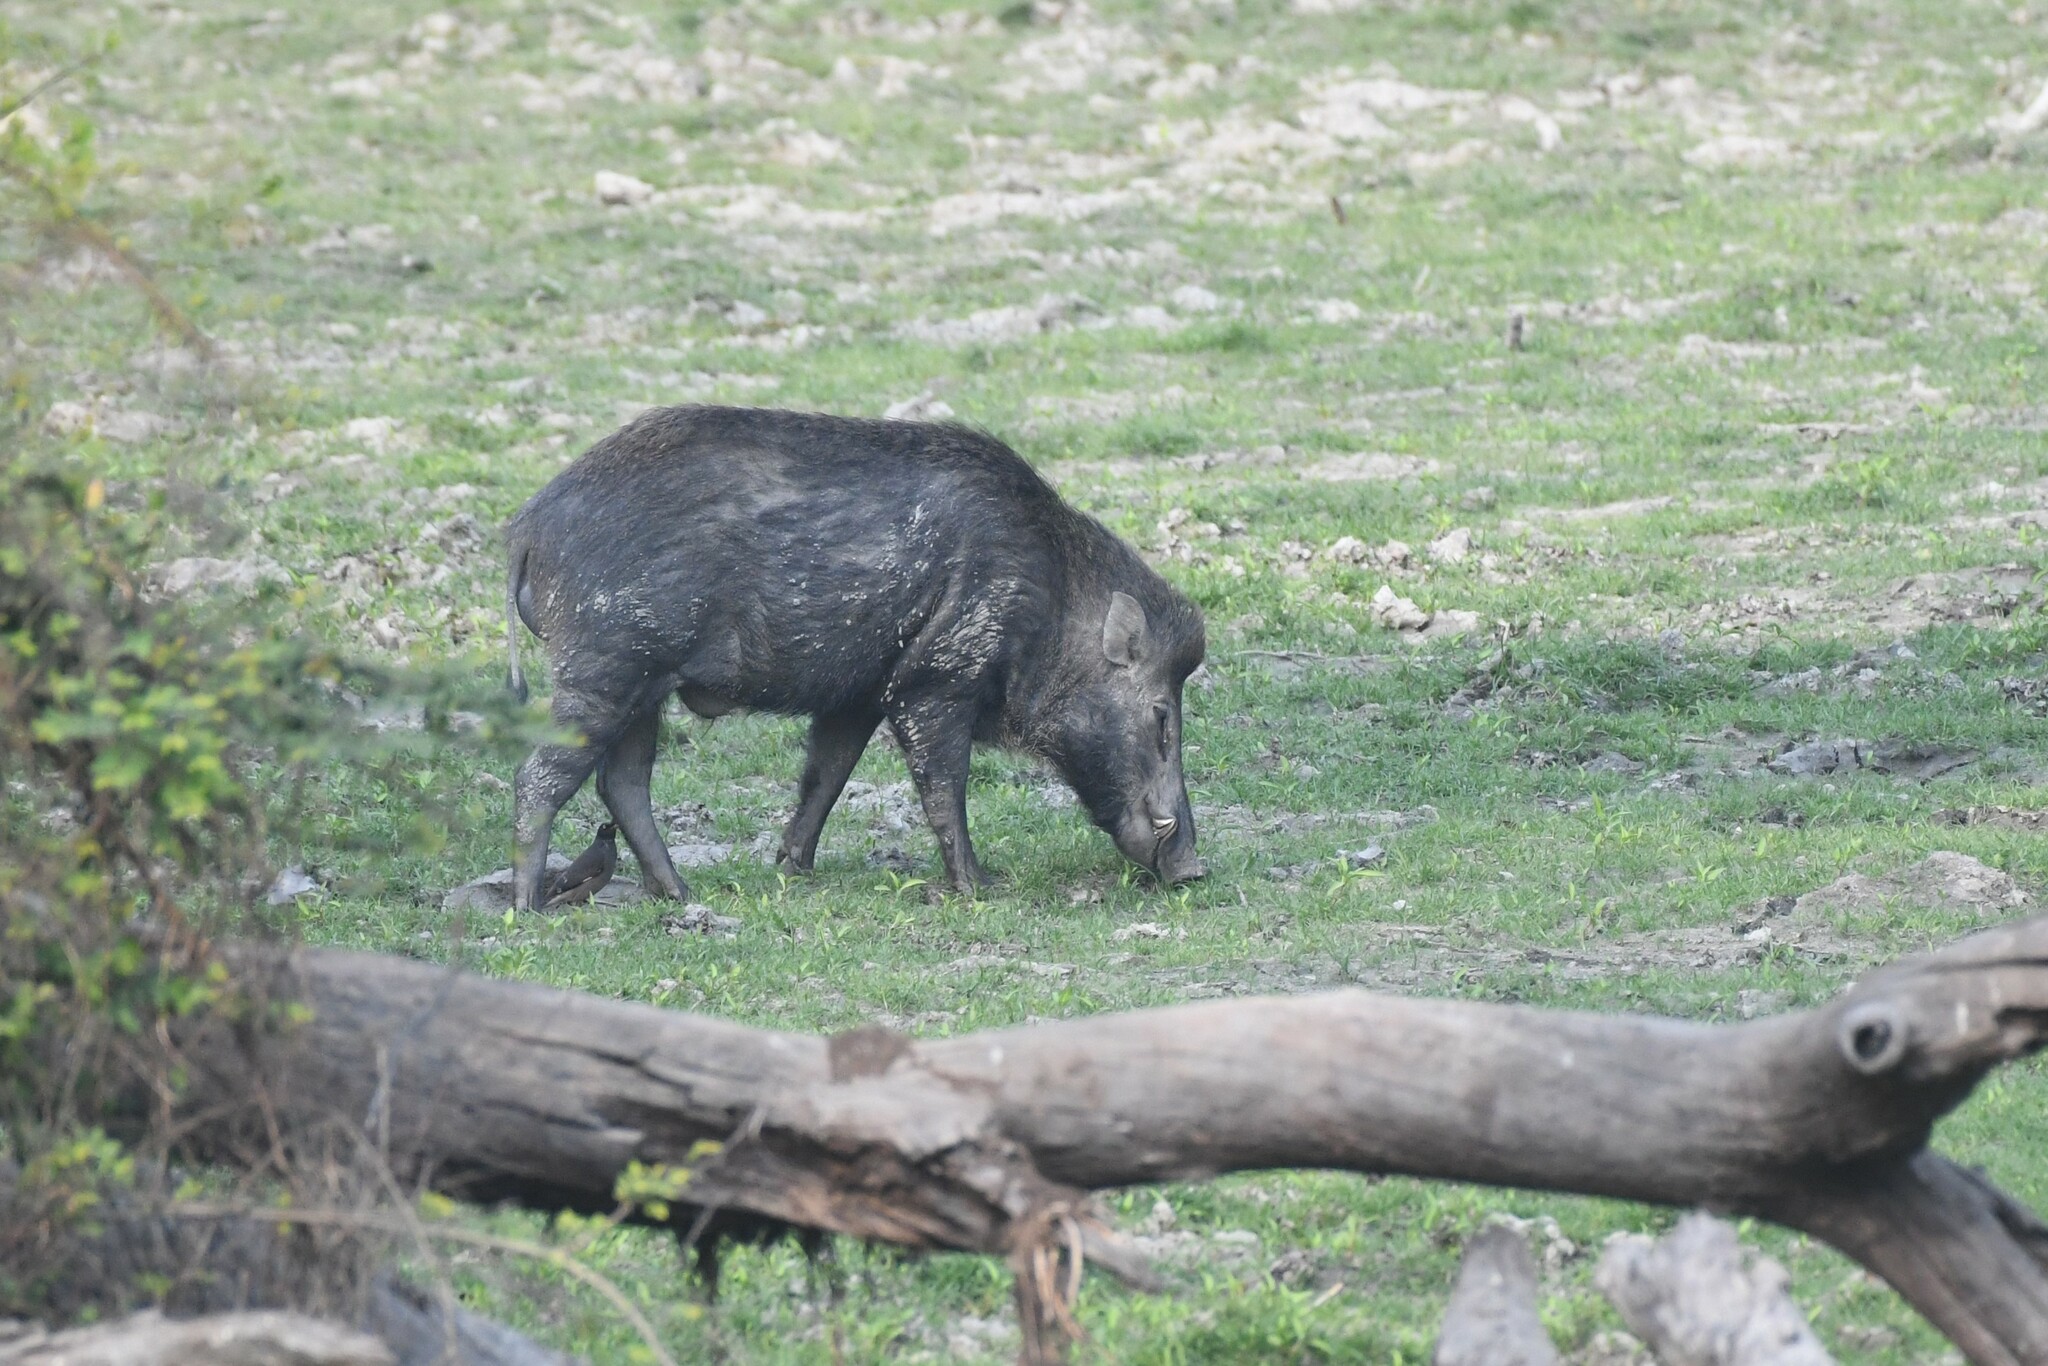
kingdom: Animalia
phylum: Chordata
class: Mammalia
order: Artiodactyla
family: Suidae
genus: Sus
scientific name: Sus scrofa
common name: Wild boar
